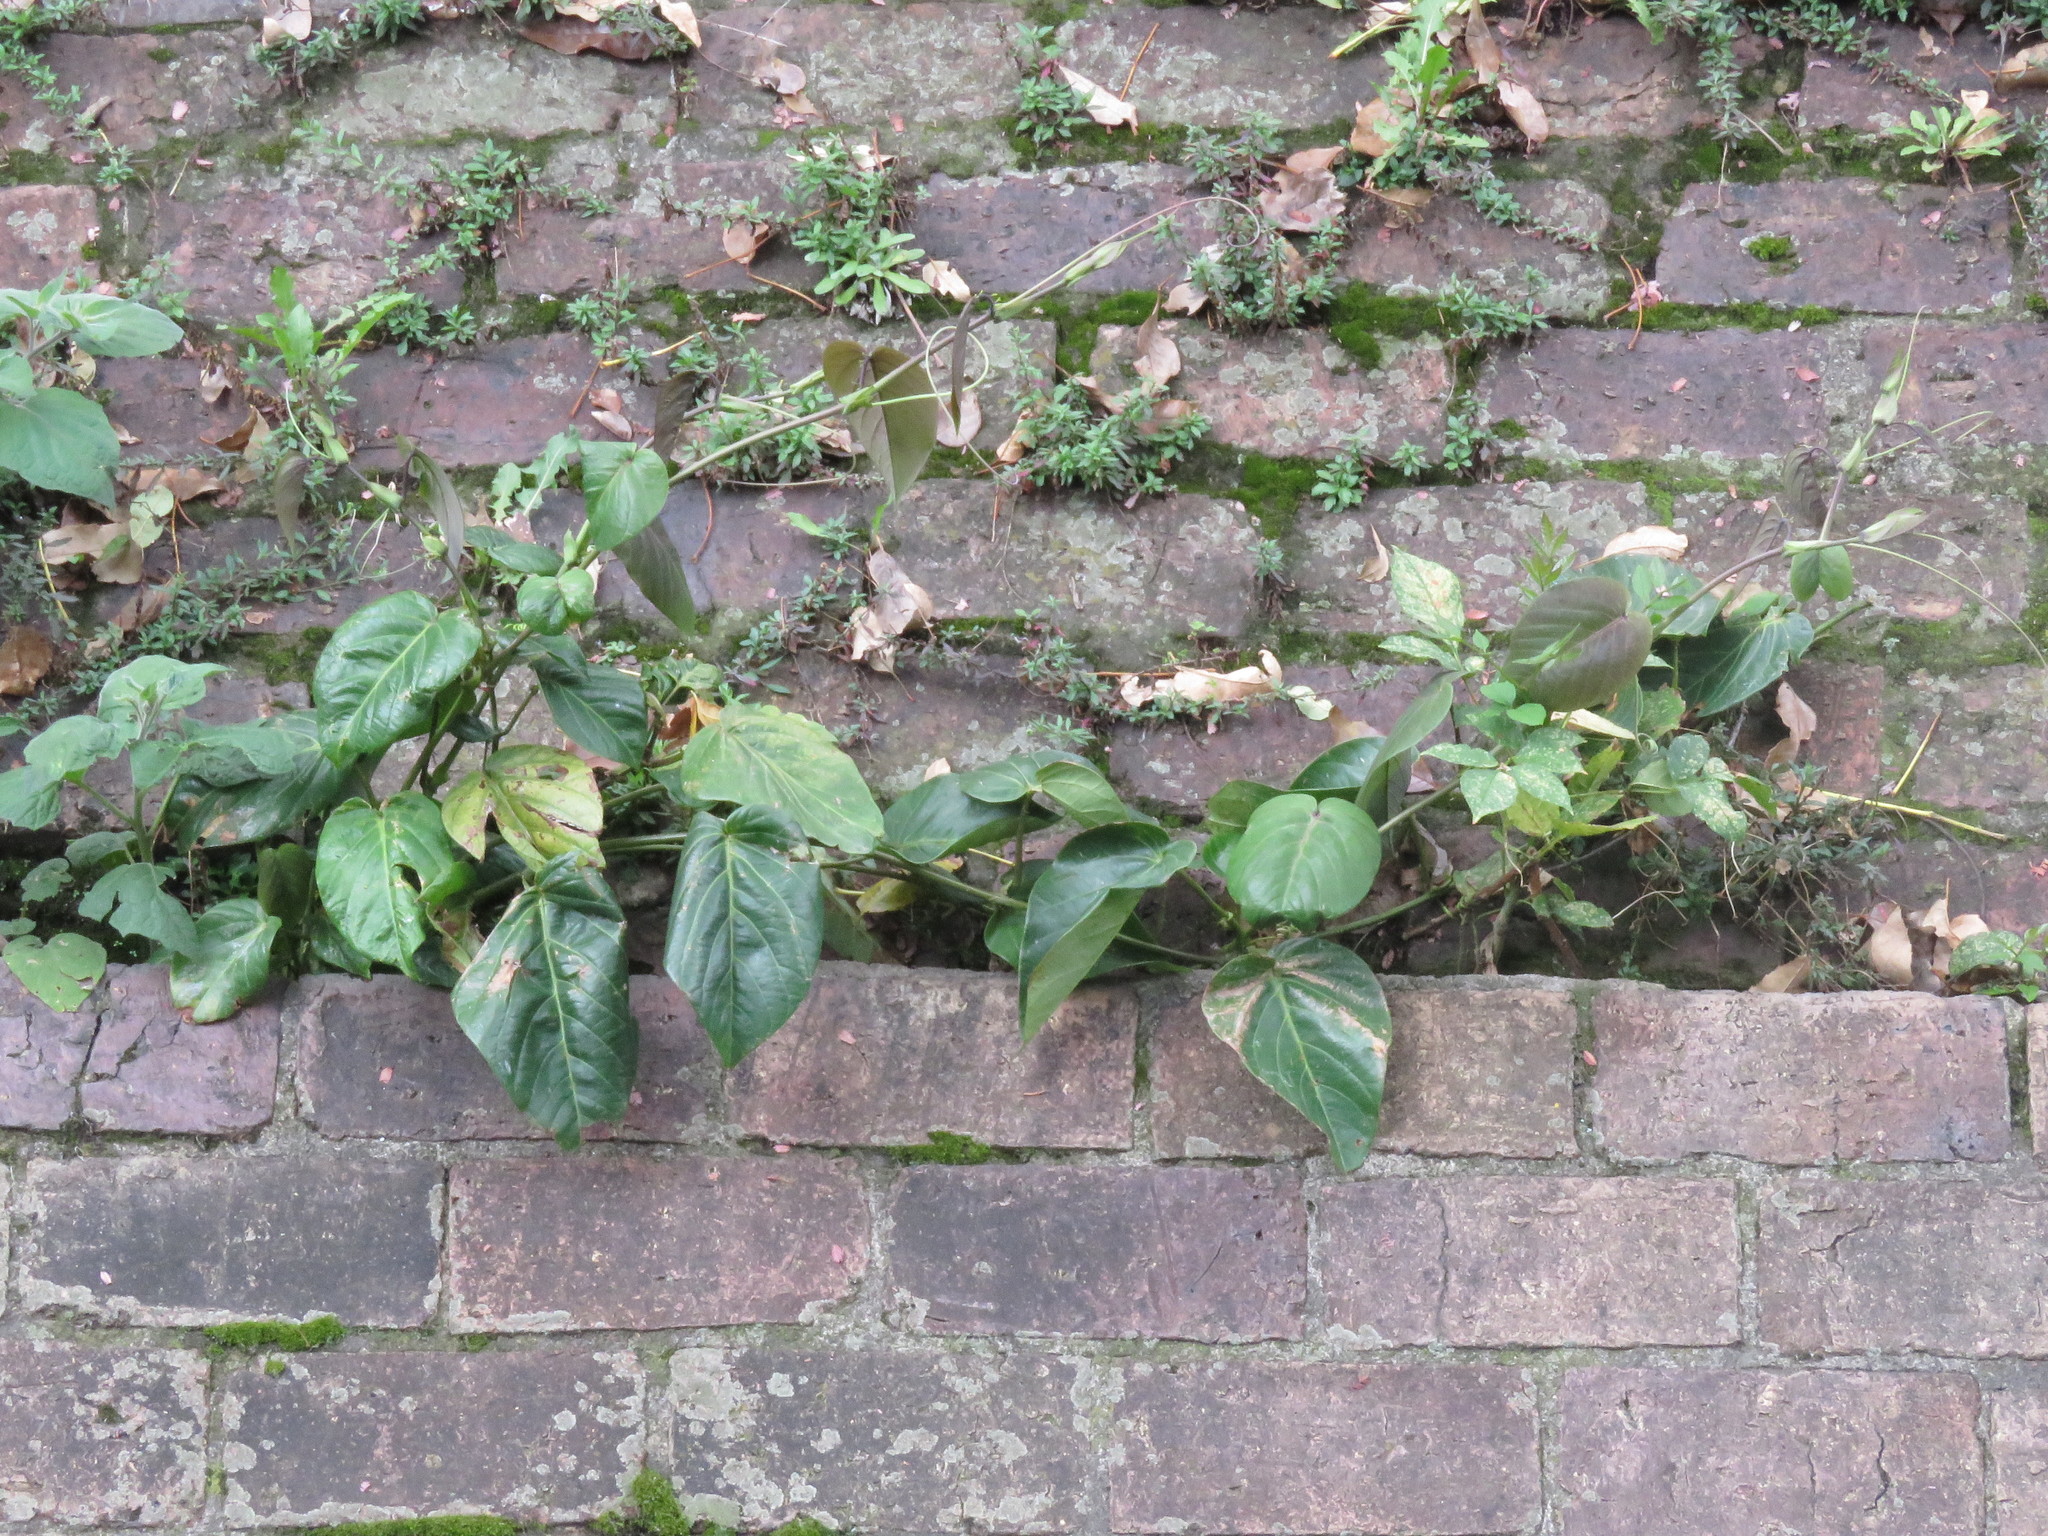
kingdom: Plantae
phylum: Tracheophyta
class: Magnoliopsida
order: Malpighiales
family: Passifloraceae
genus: Passiflora
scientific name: Passiflora ligularis
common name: Sweet granadilla
